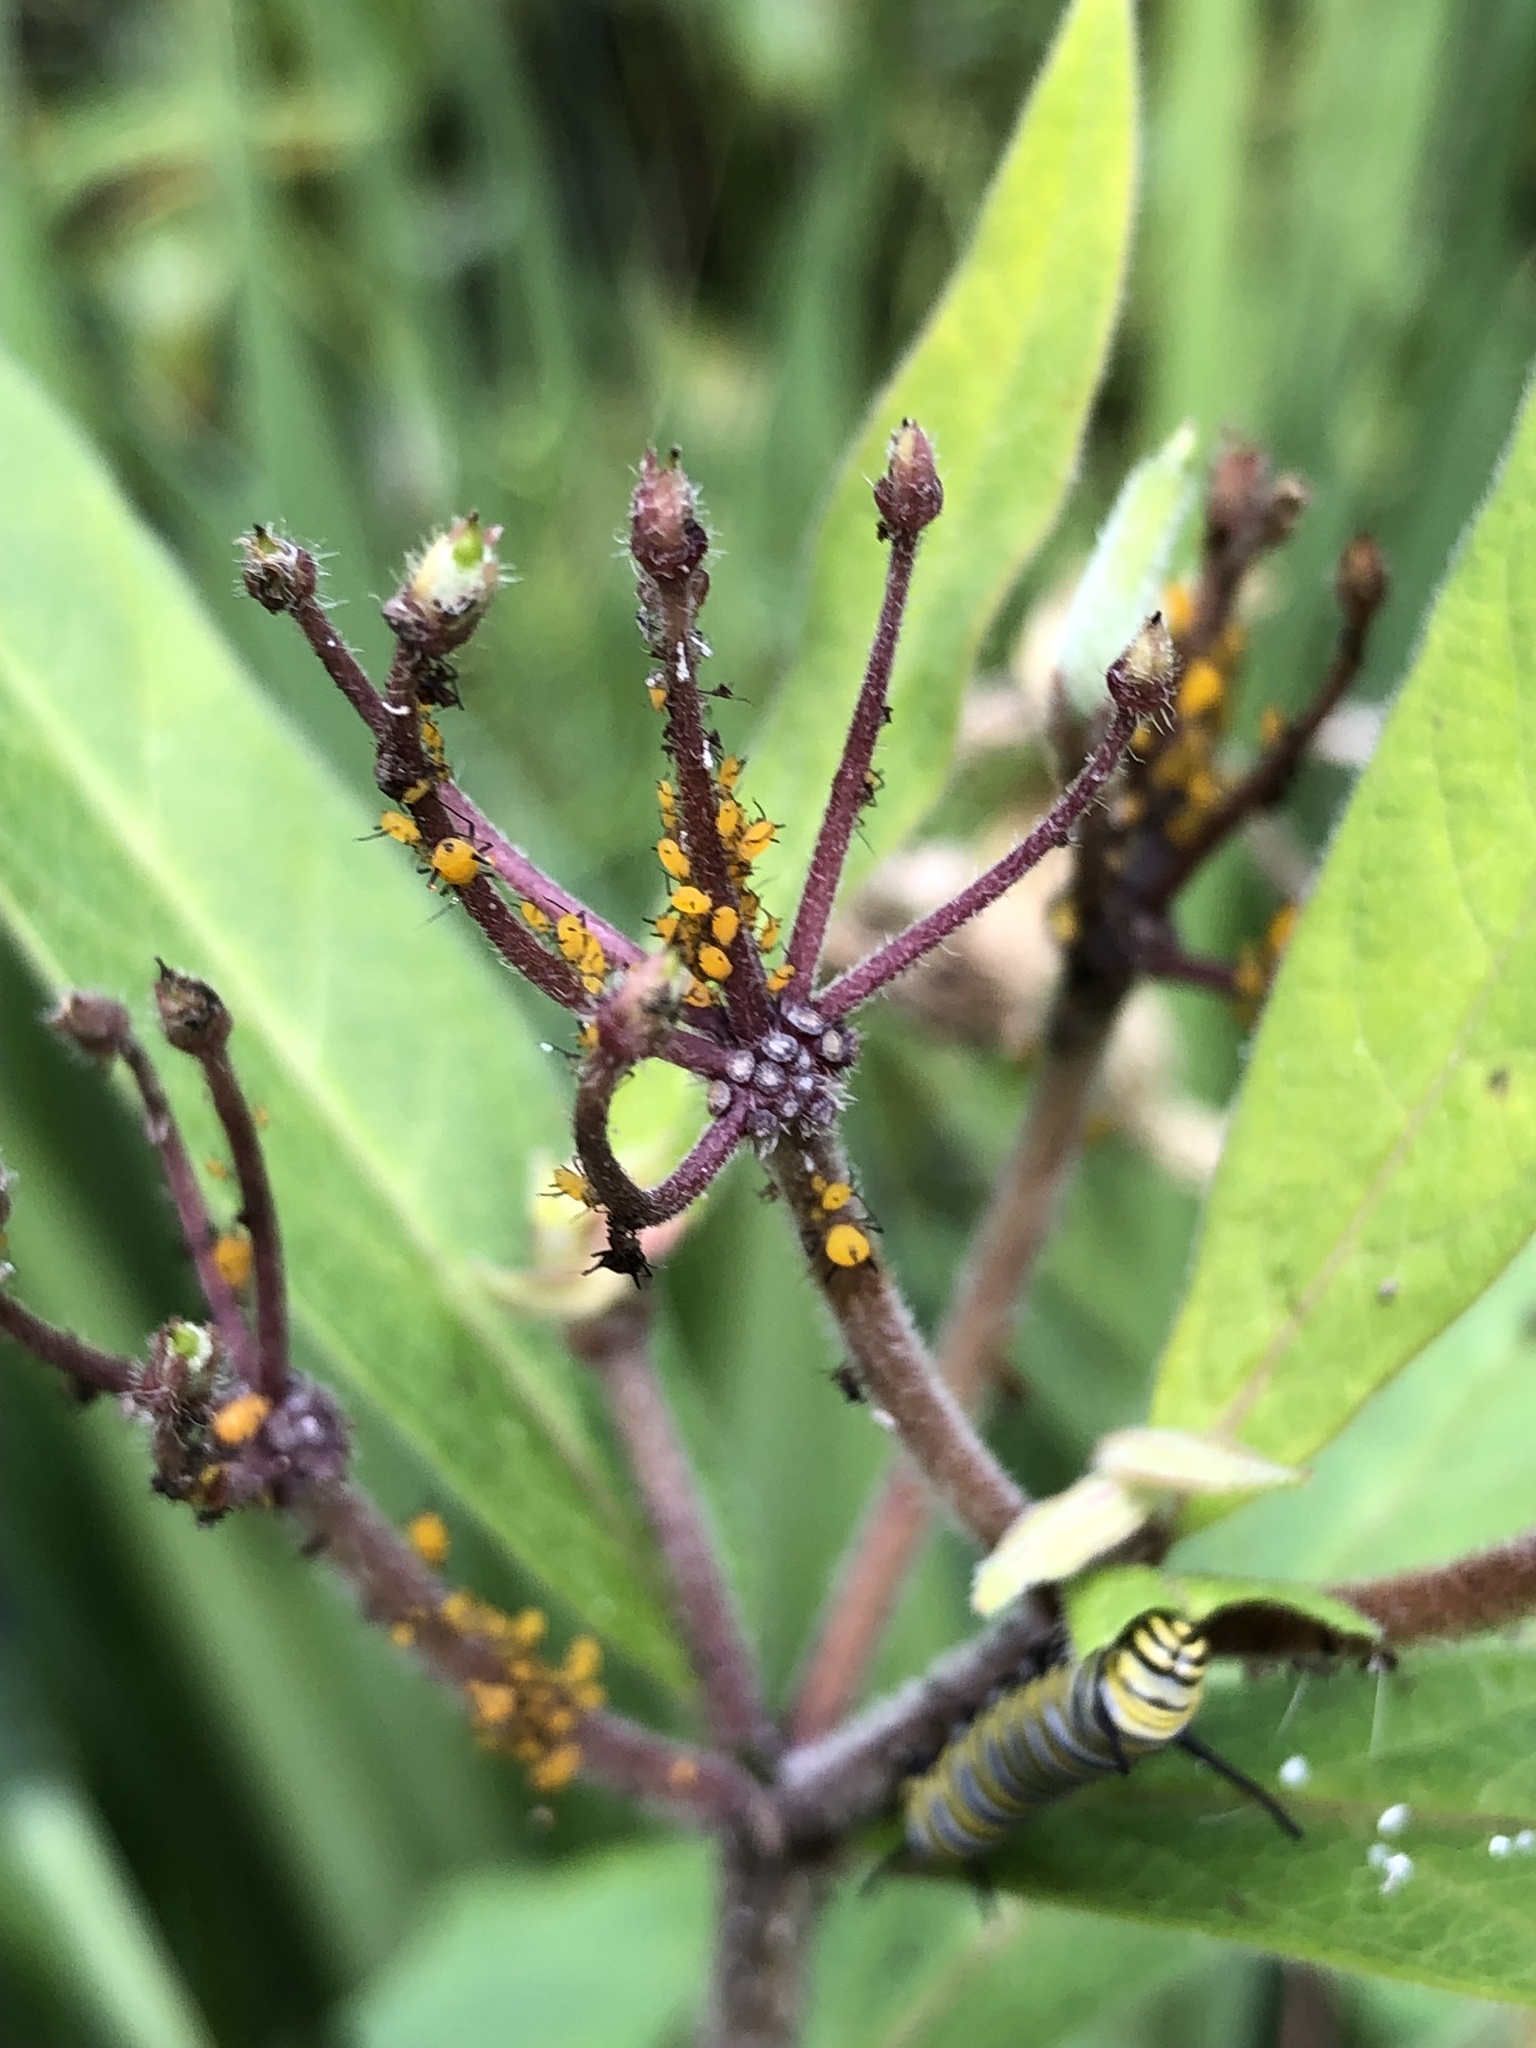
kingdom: Animalia
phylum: Arthropoda
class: Insecta
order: Hemiptera
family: Aphididae
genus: Aphis
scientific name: Aphis nerii
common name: Oleander aphid
